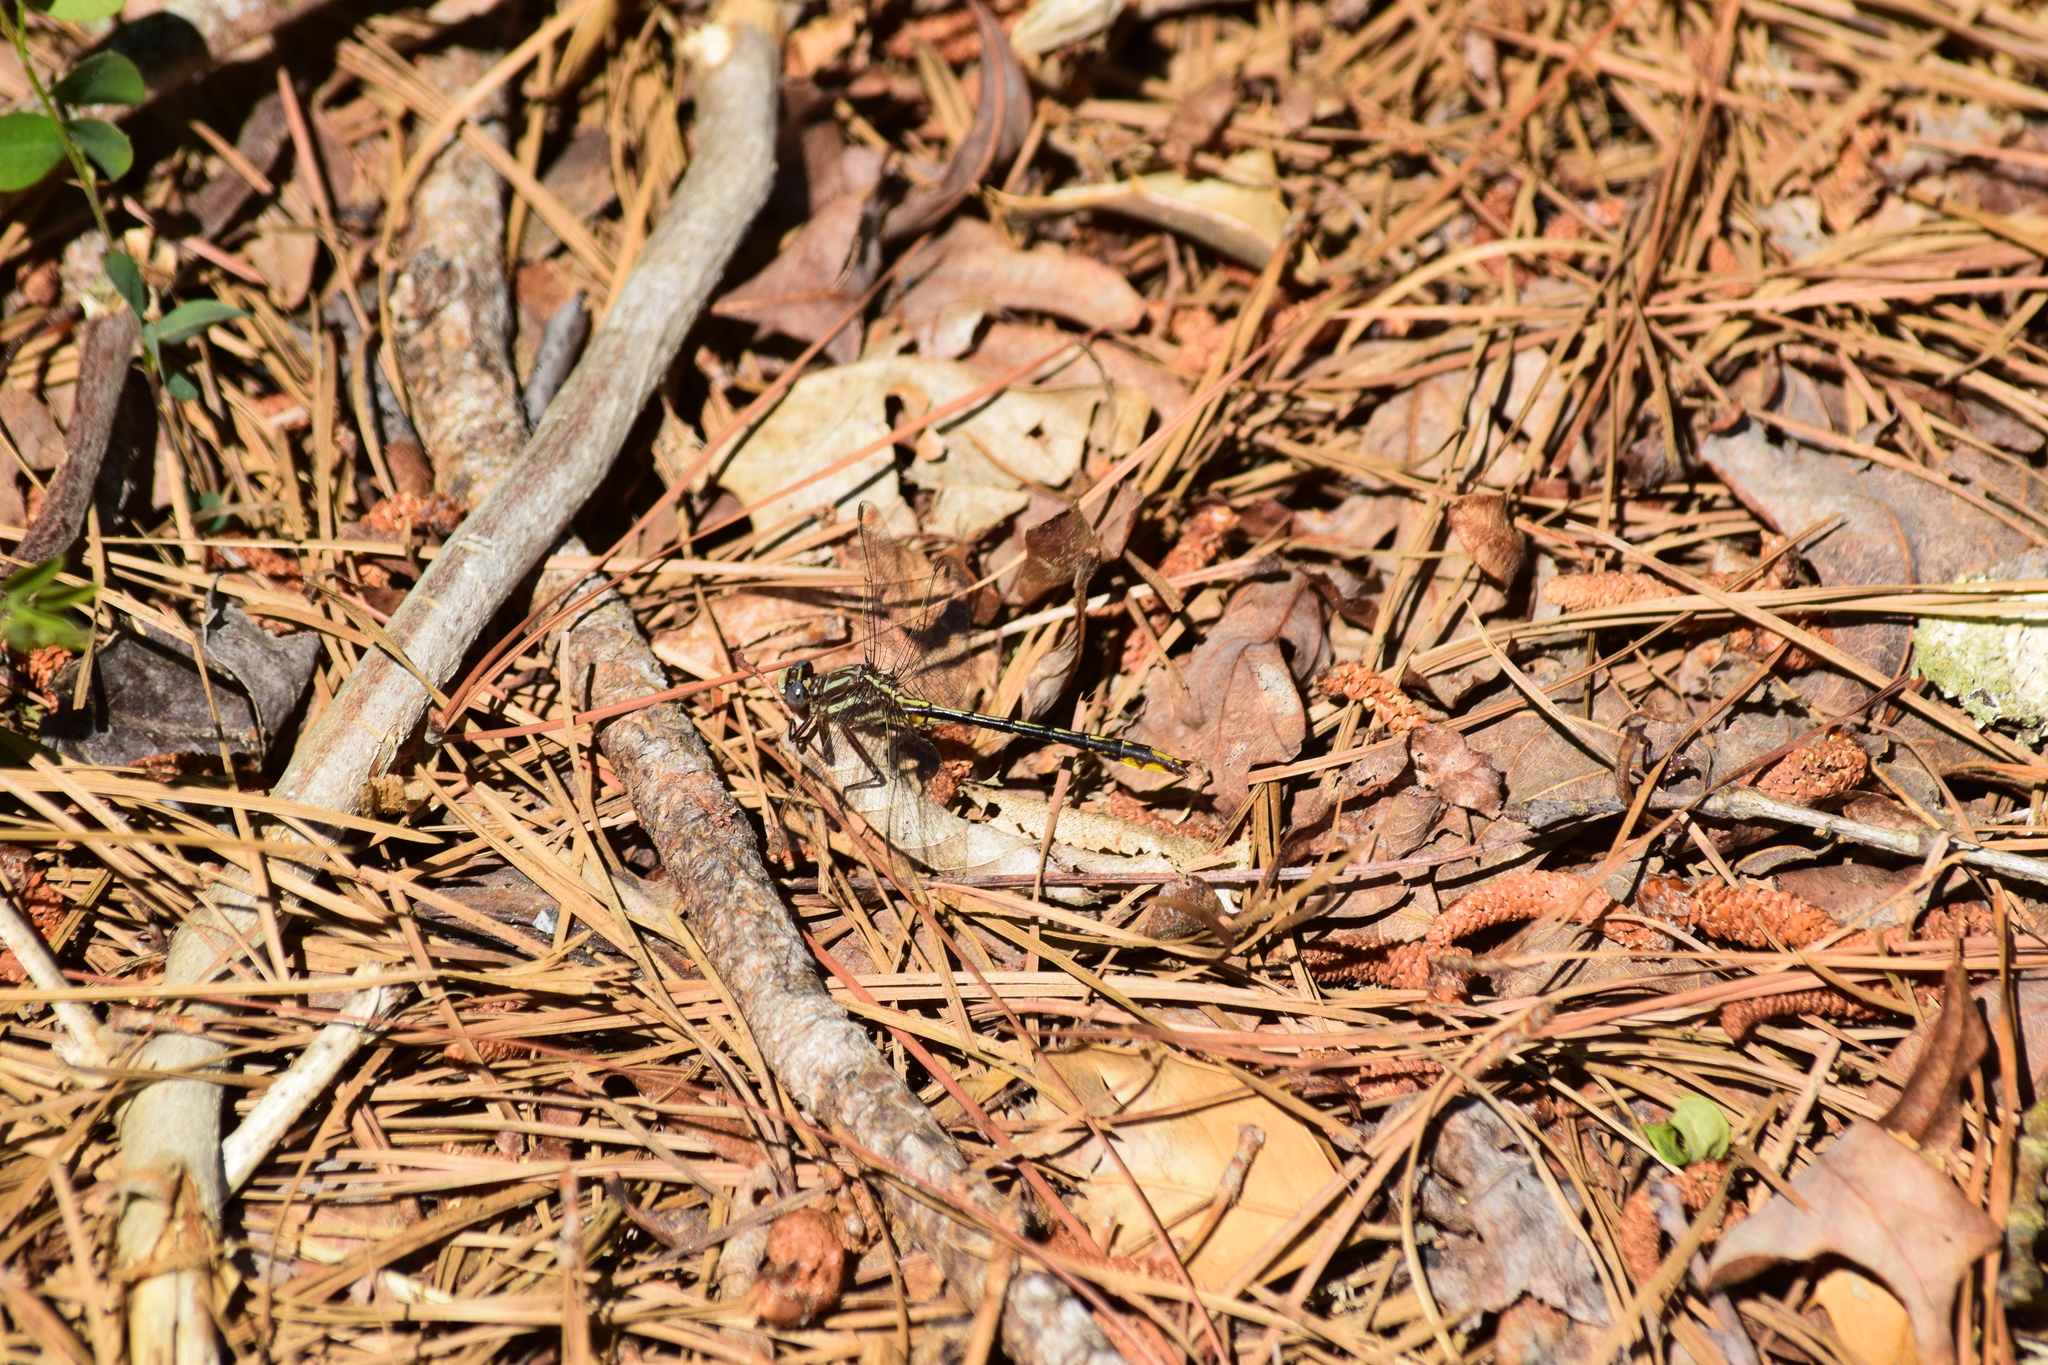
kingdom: Animalia
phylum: Arthropoda
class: Insecta
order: Odonata
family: Gomphidae
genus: Phanogomphus
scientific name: Phanogomphus exilis
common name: Lancet clubtail
